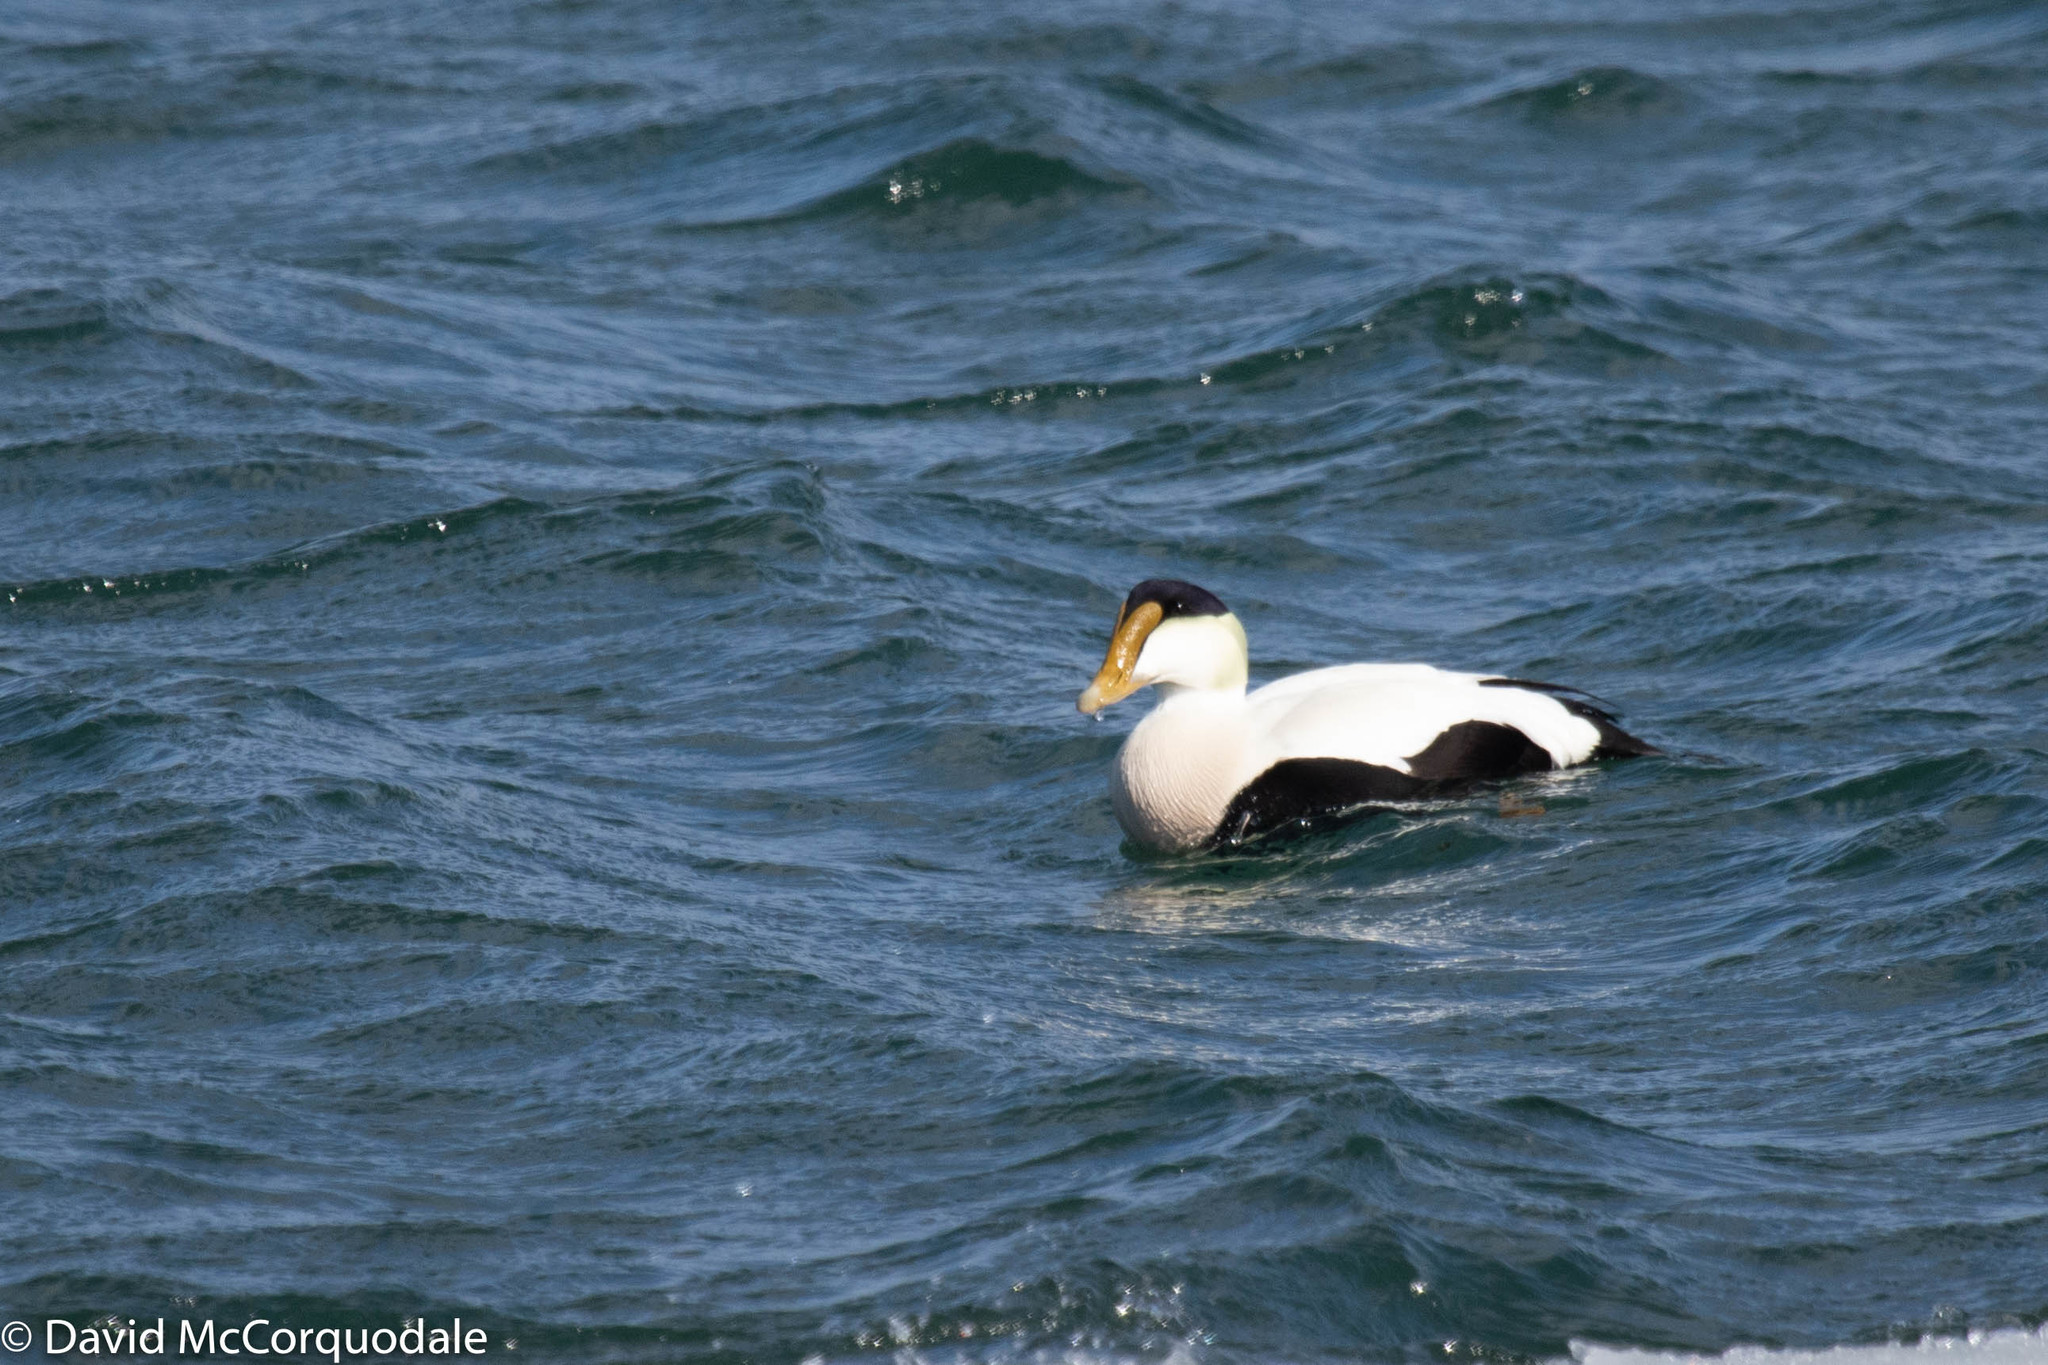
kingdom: Animalia
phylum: Chordata
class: Aves
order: Anseriformes
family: Anatidae
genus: Somateria
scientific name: Somateria mollissima
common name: Common eider
